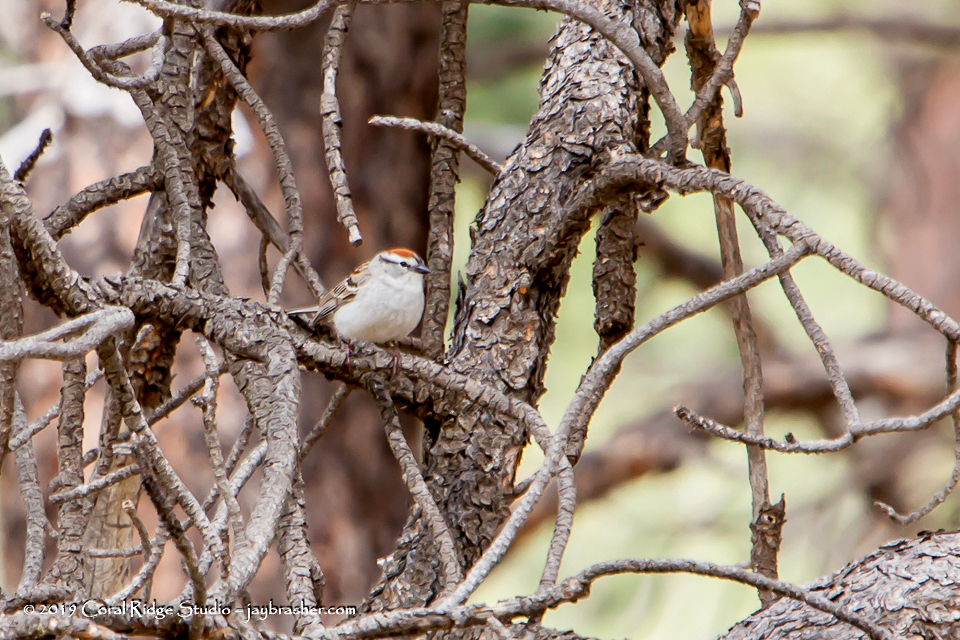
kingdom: Animalia
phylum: Chordata
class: Aves
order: Passeriformes
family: Passerellidae
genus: Spizella
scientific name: Spizella passerina
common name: Chipping sparrow
